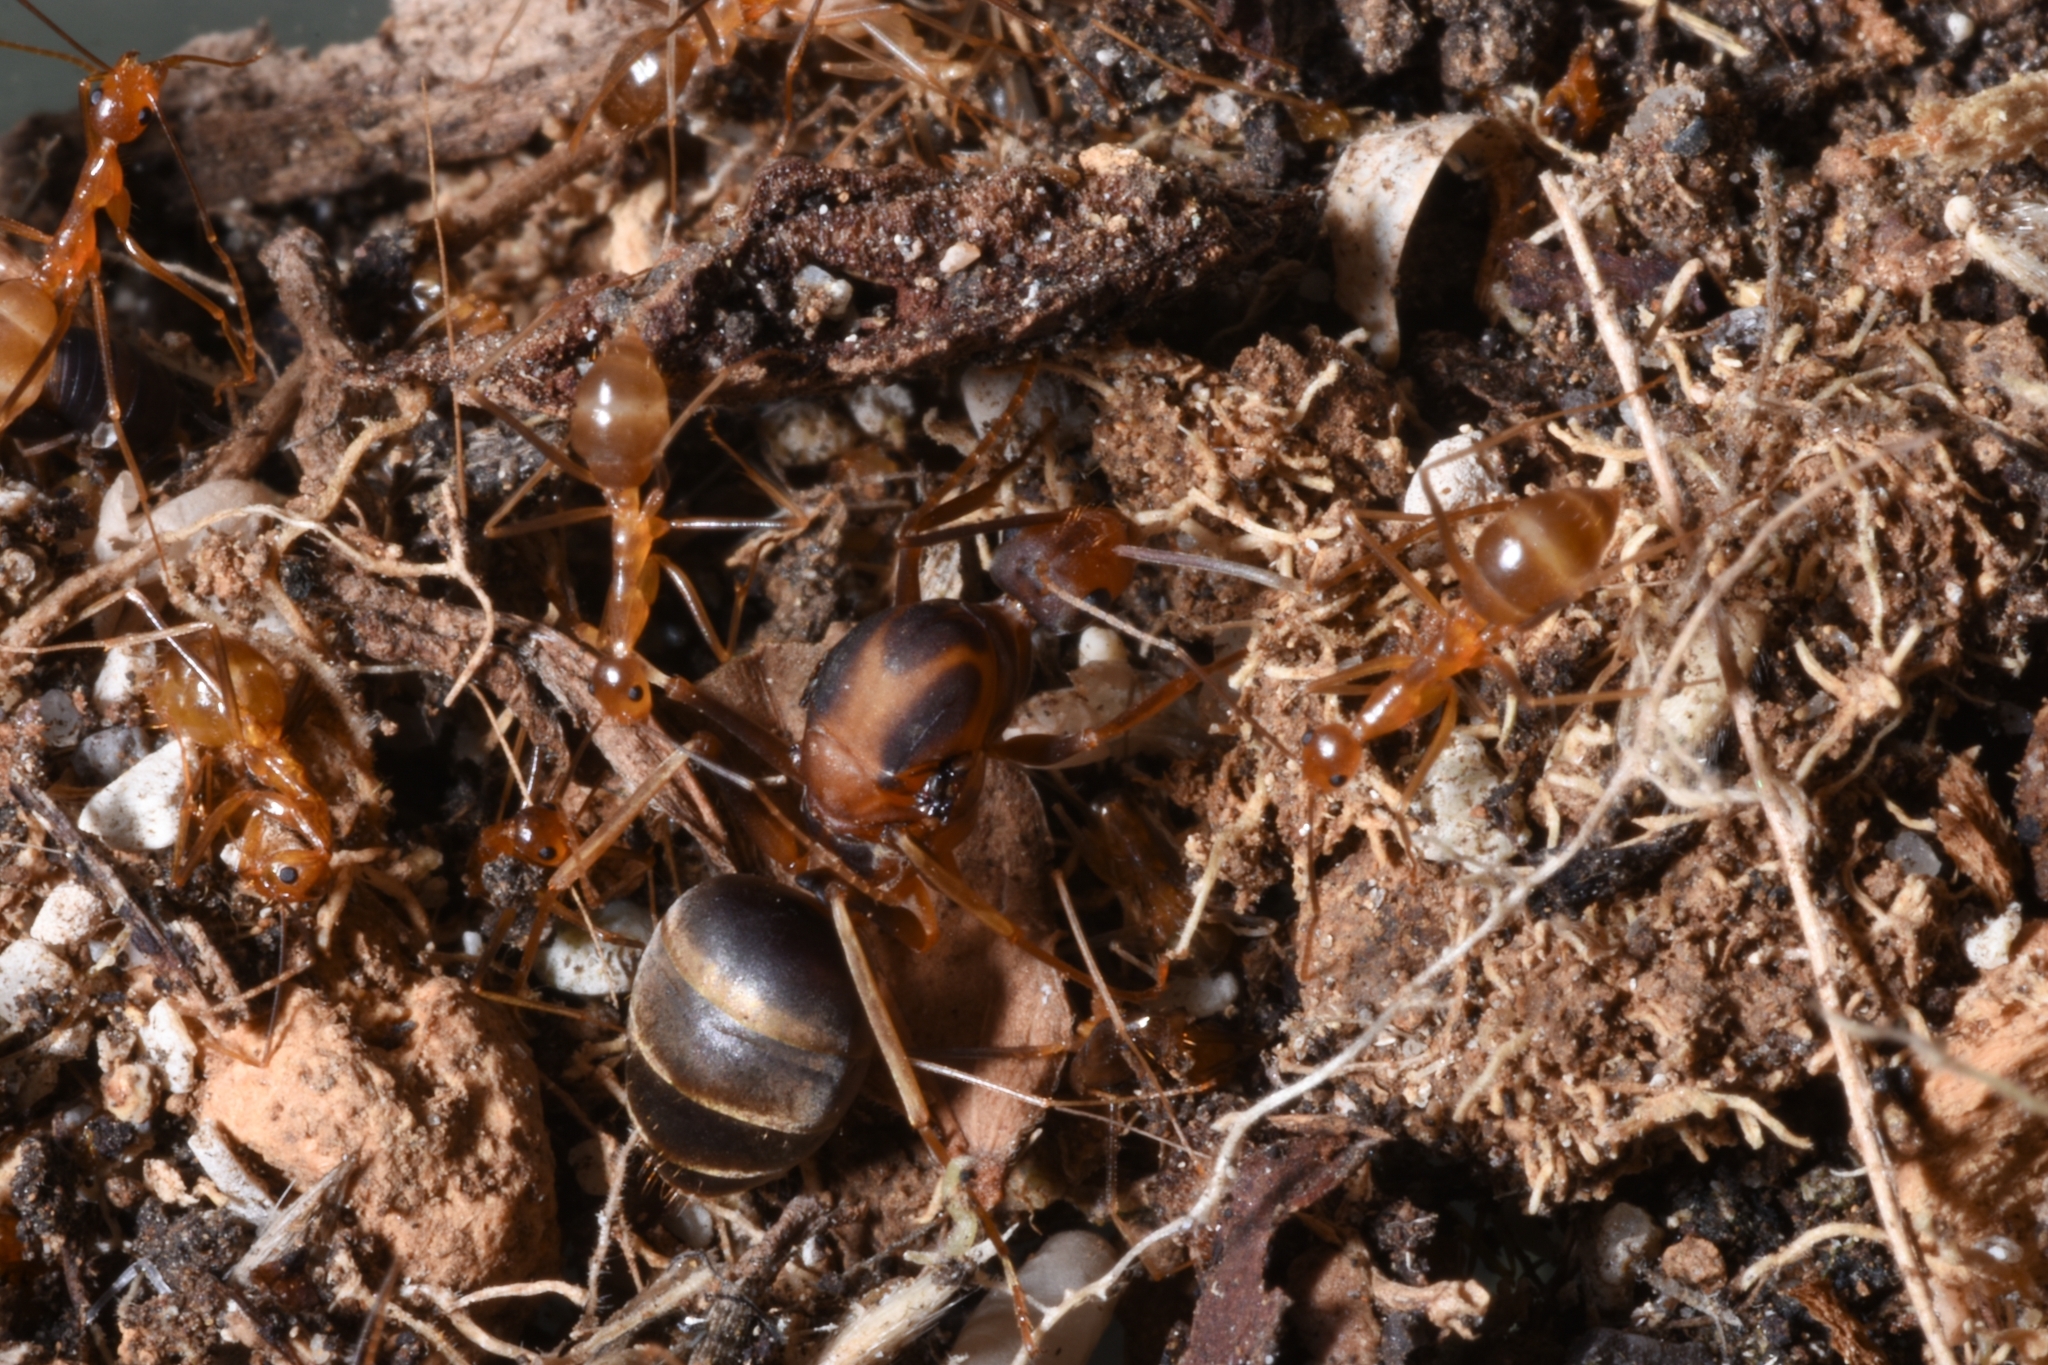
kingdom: Animalia
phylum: Arthropoda
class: Insecta
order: Hymenoptera
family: Formicidae
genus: Anoplolepis
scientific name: Anoplolepis gracilipes
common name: Ant
